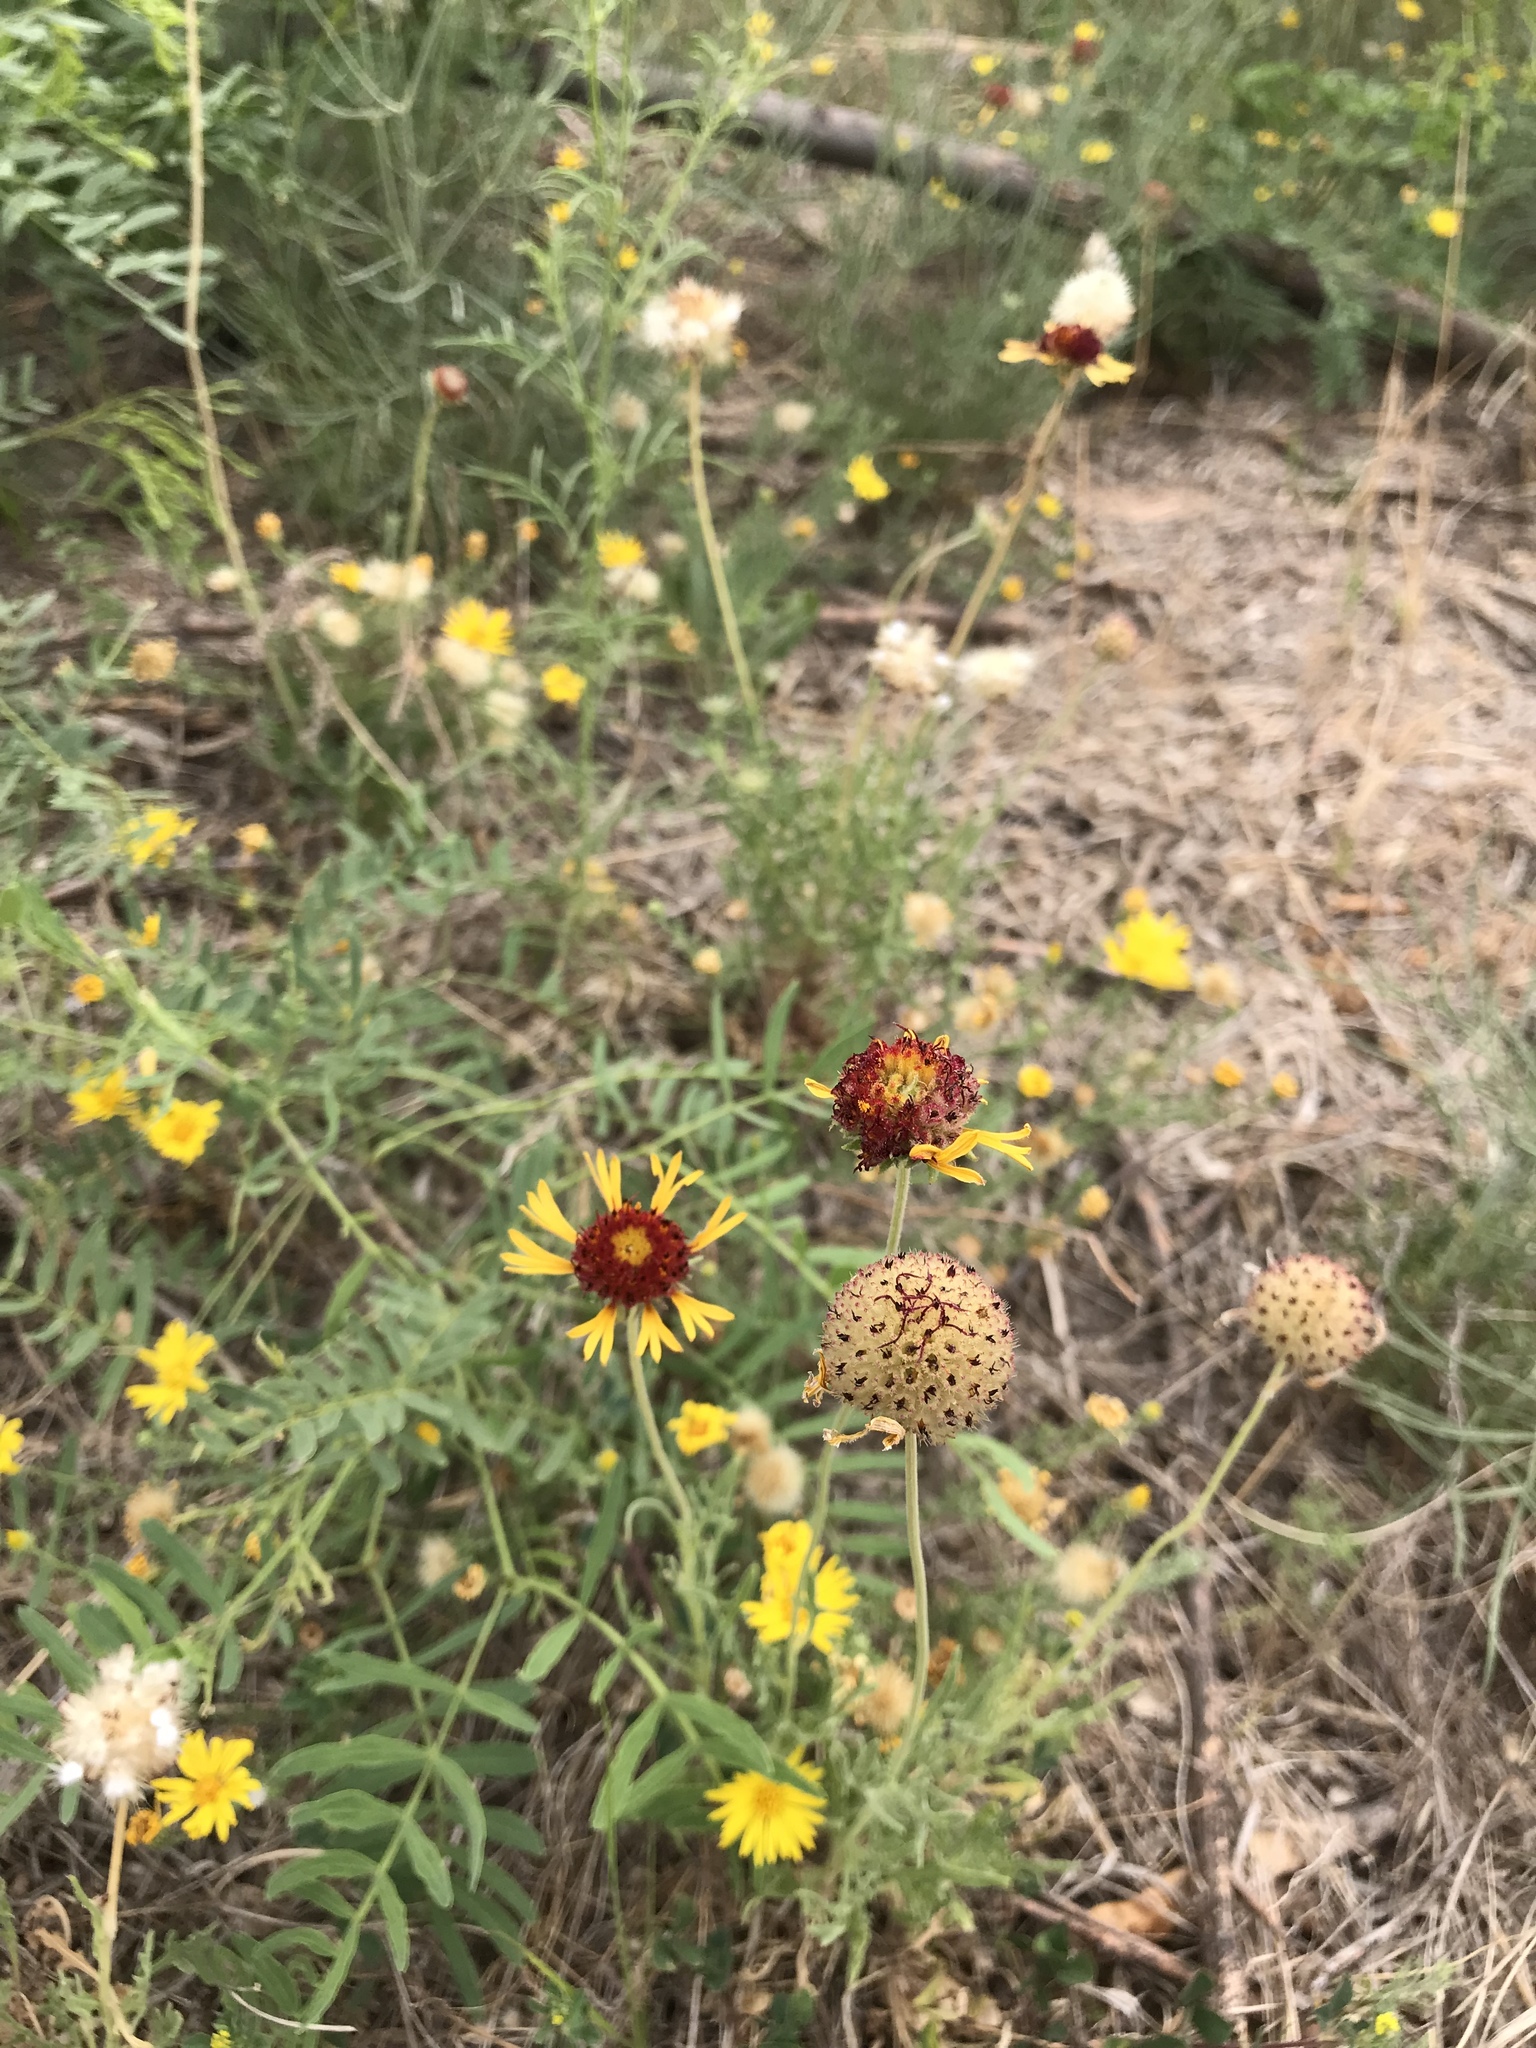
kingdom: Plantae
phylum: Tracheophyta
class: Magnoliopsida
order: Asterales
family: Asteraceae
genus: Gaillardia
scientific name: Gaillardia pinnatifida
